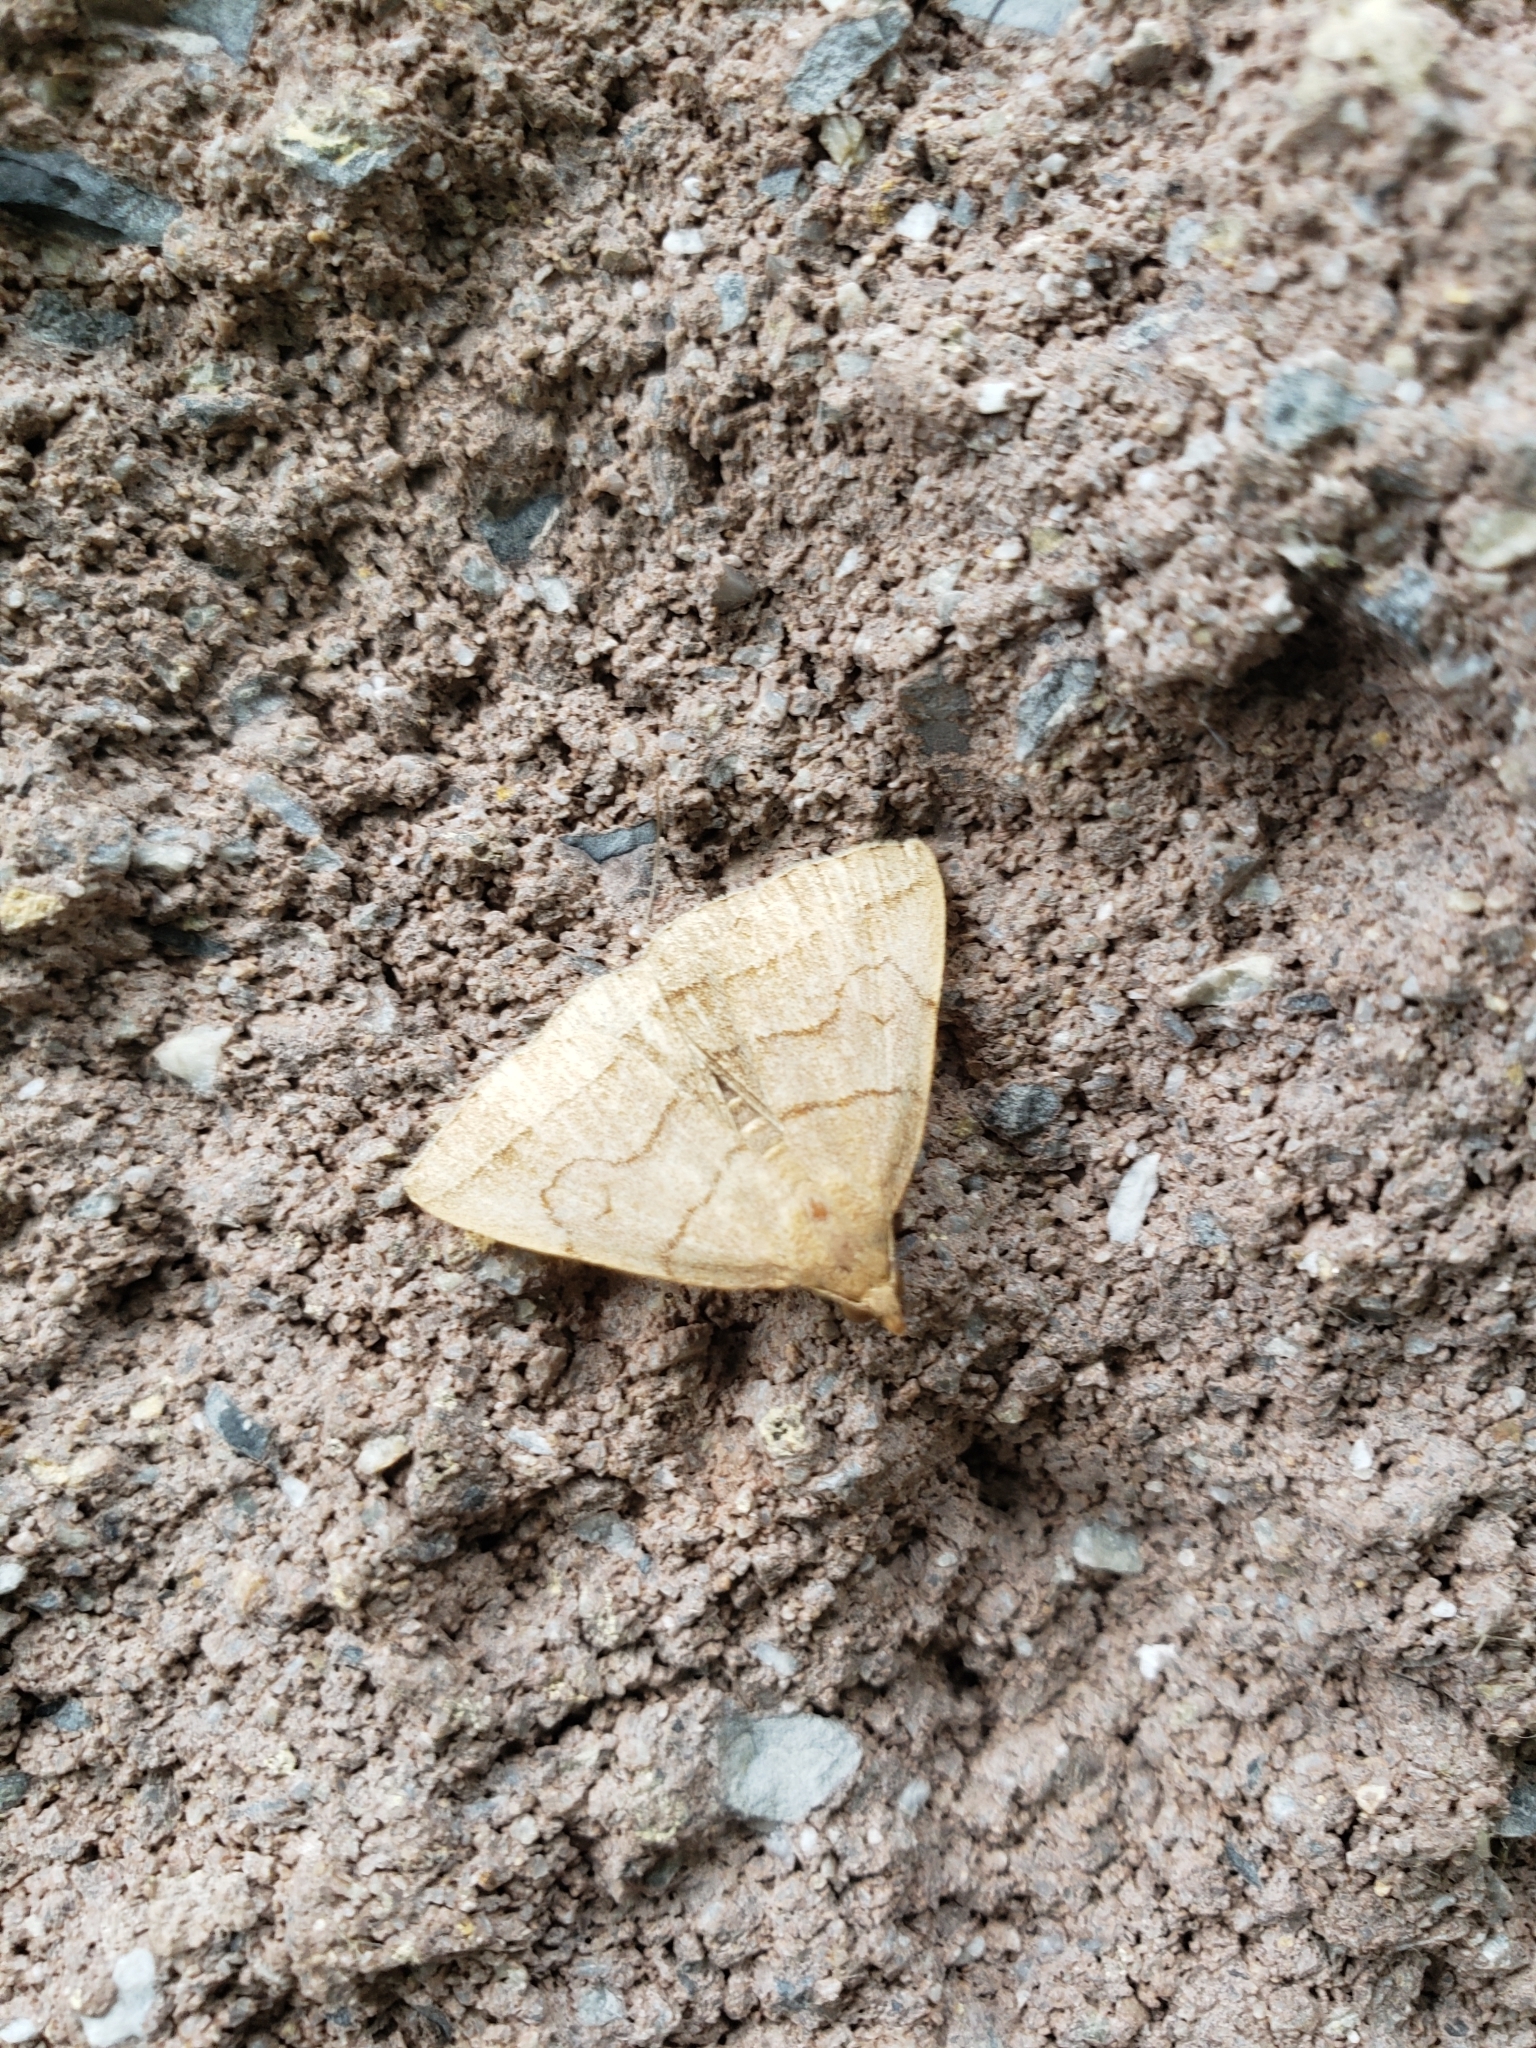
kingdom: Animalia
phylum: Arthropoda
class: Insecta
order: Lepidoptera
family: Erebidae
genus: Zanclognatha
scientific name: Zanclognatha cruralis
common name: Early fan-foot
